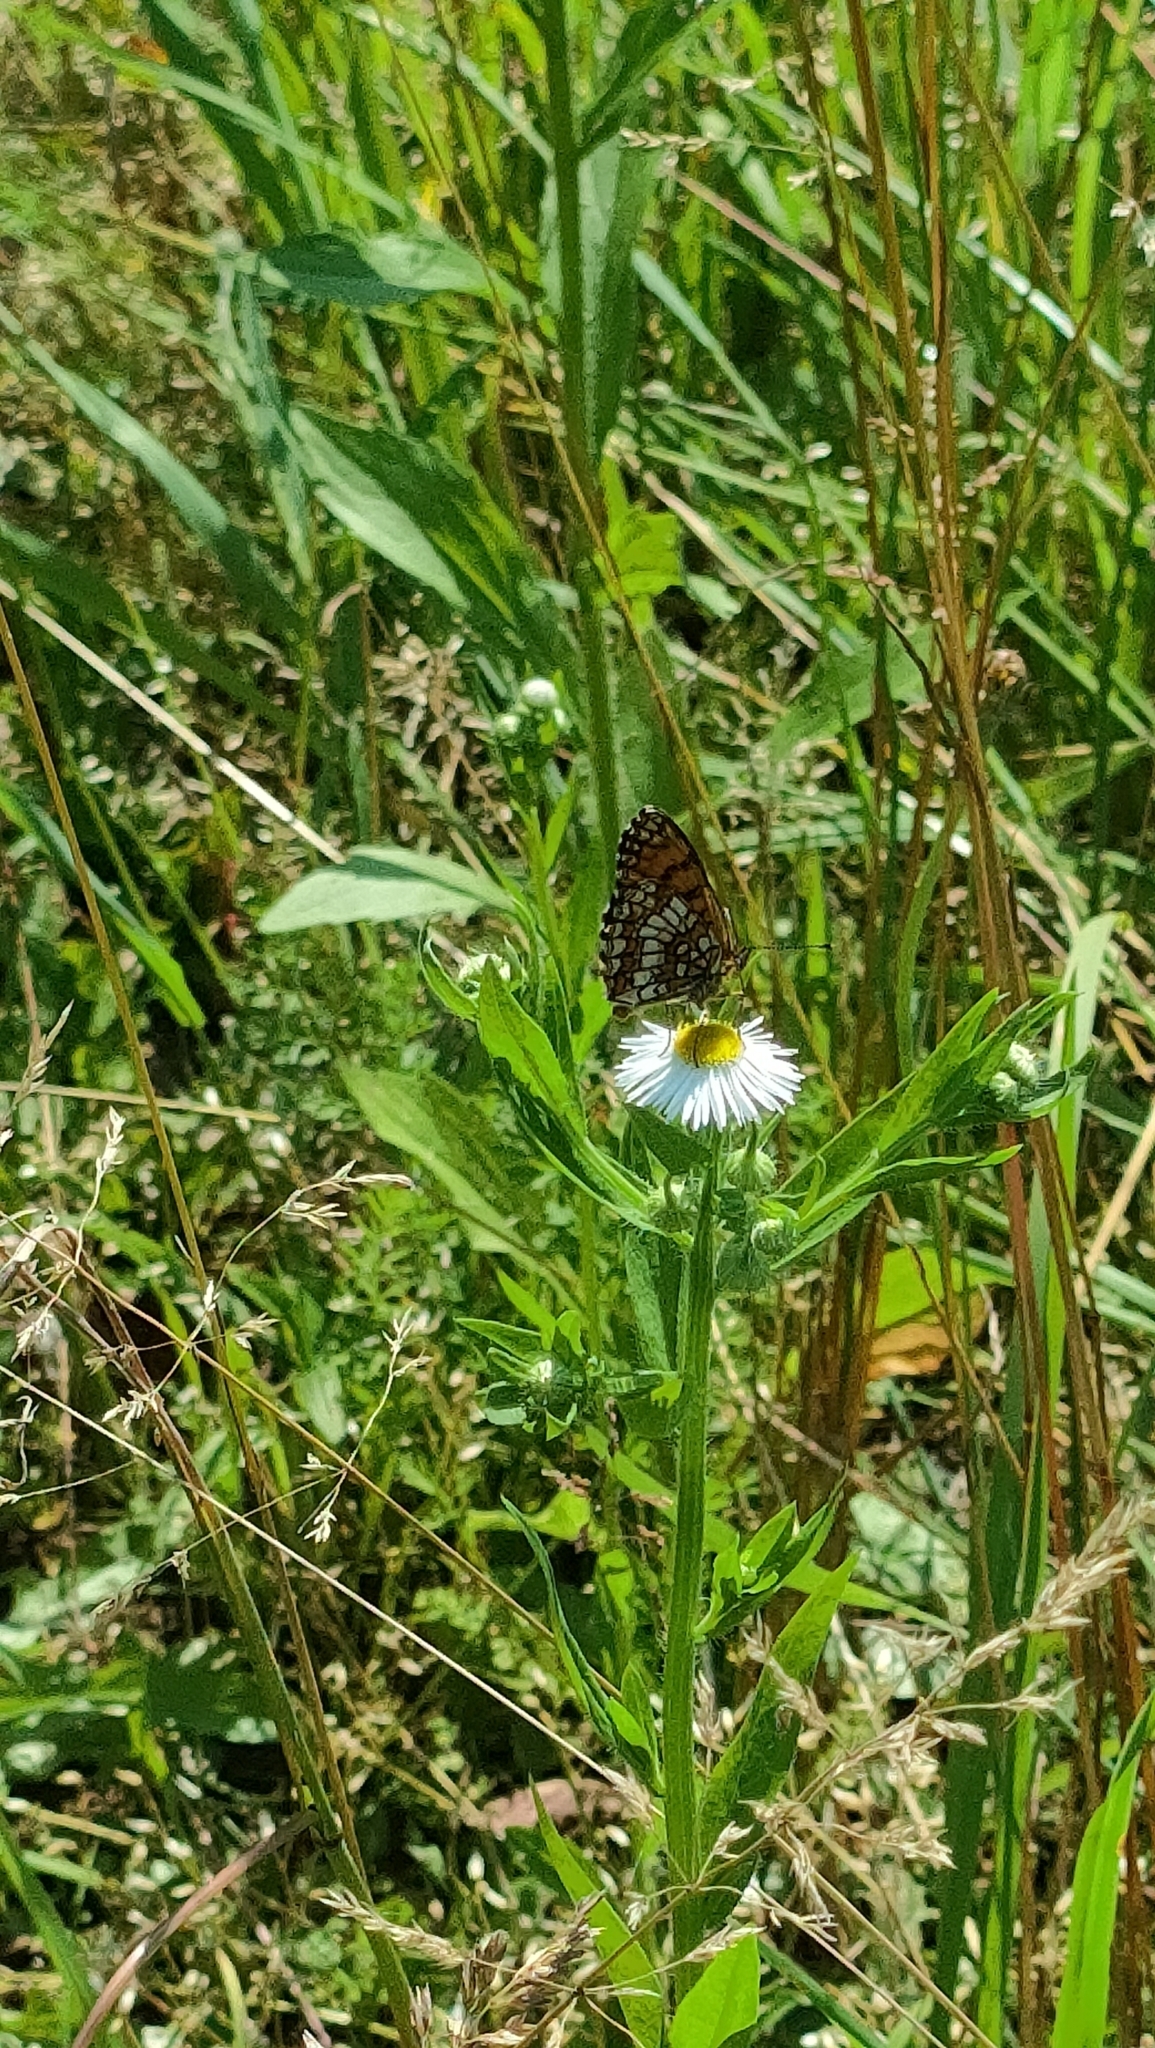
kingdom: Animalia
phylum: Arthropoda
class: Insecta
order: Lepidoptera
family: Nymphalidae
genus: Mellicta
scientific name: Mellicta athalia
